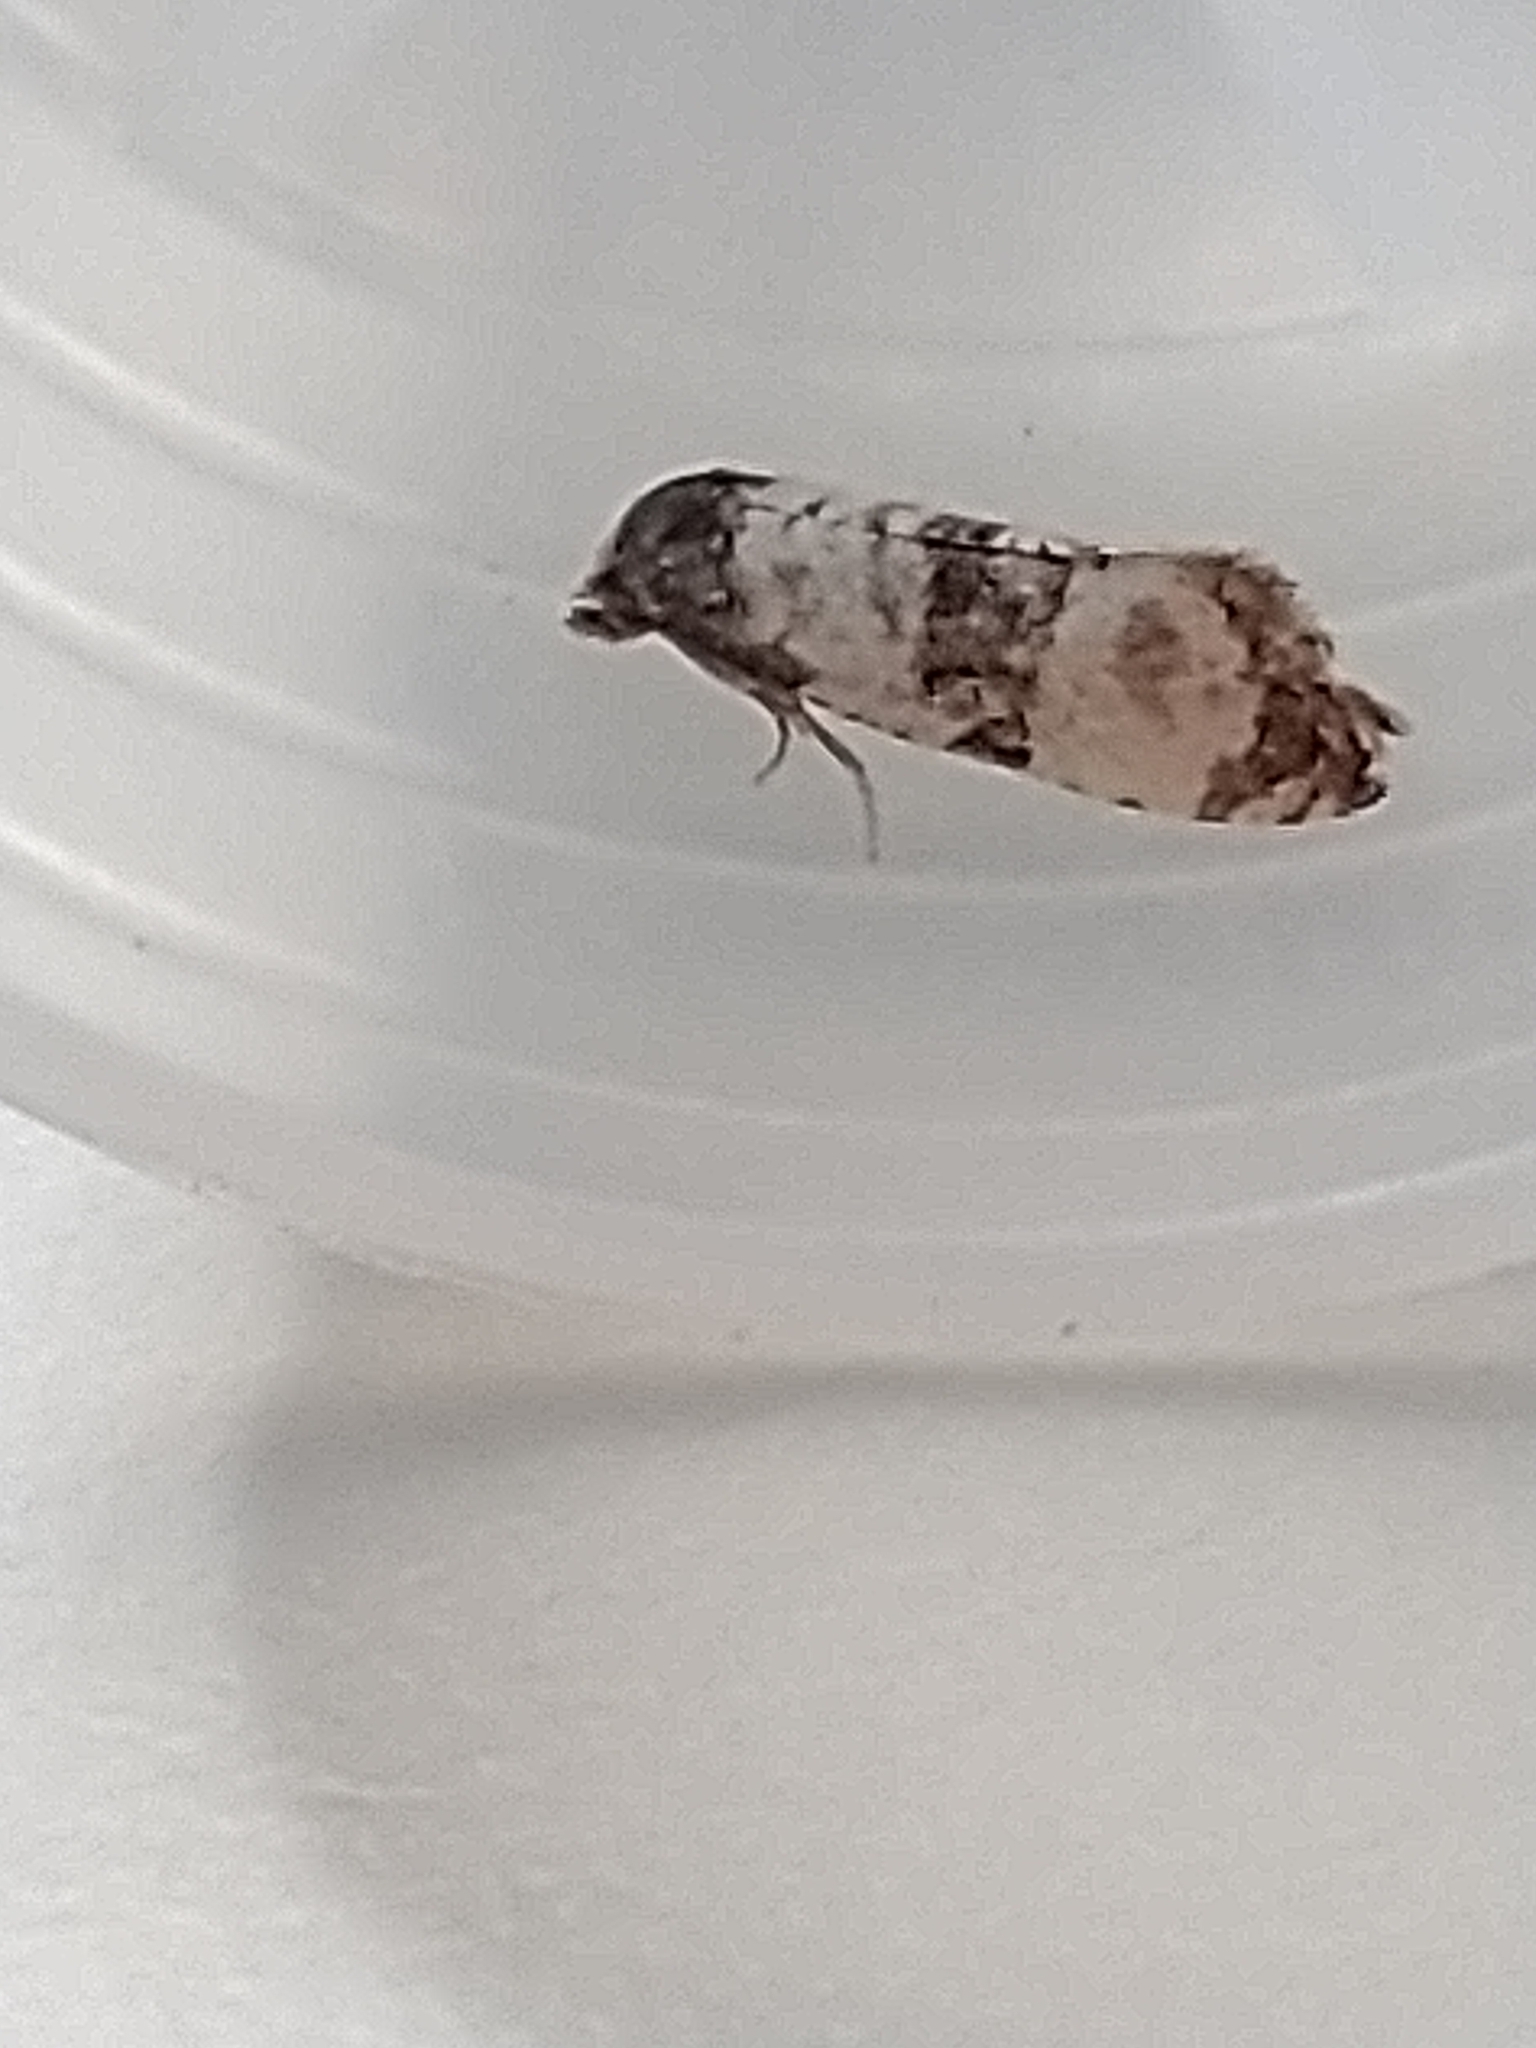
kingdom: Animalia
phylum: Arthropoda
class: Insecta
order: Lepidoptera
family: Tortricidae
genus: Cochylis
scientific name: Cochylis atricapitana
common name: Tortricid moth
